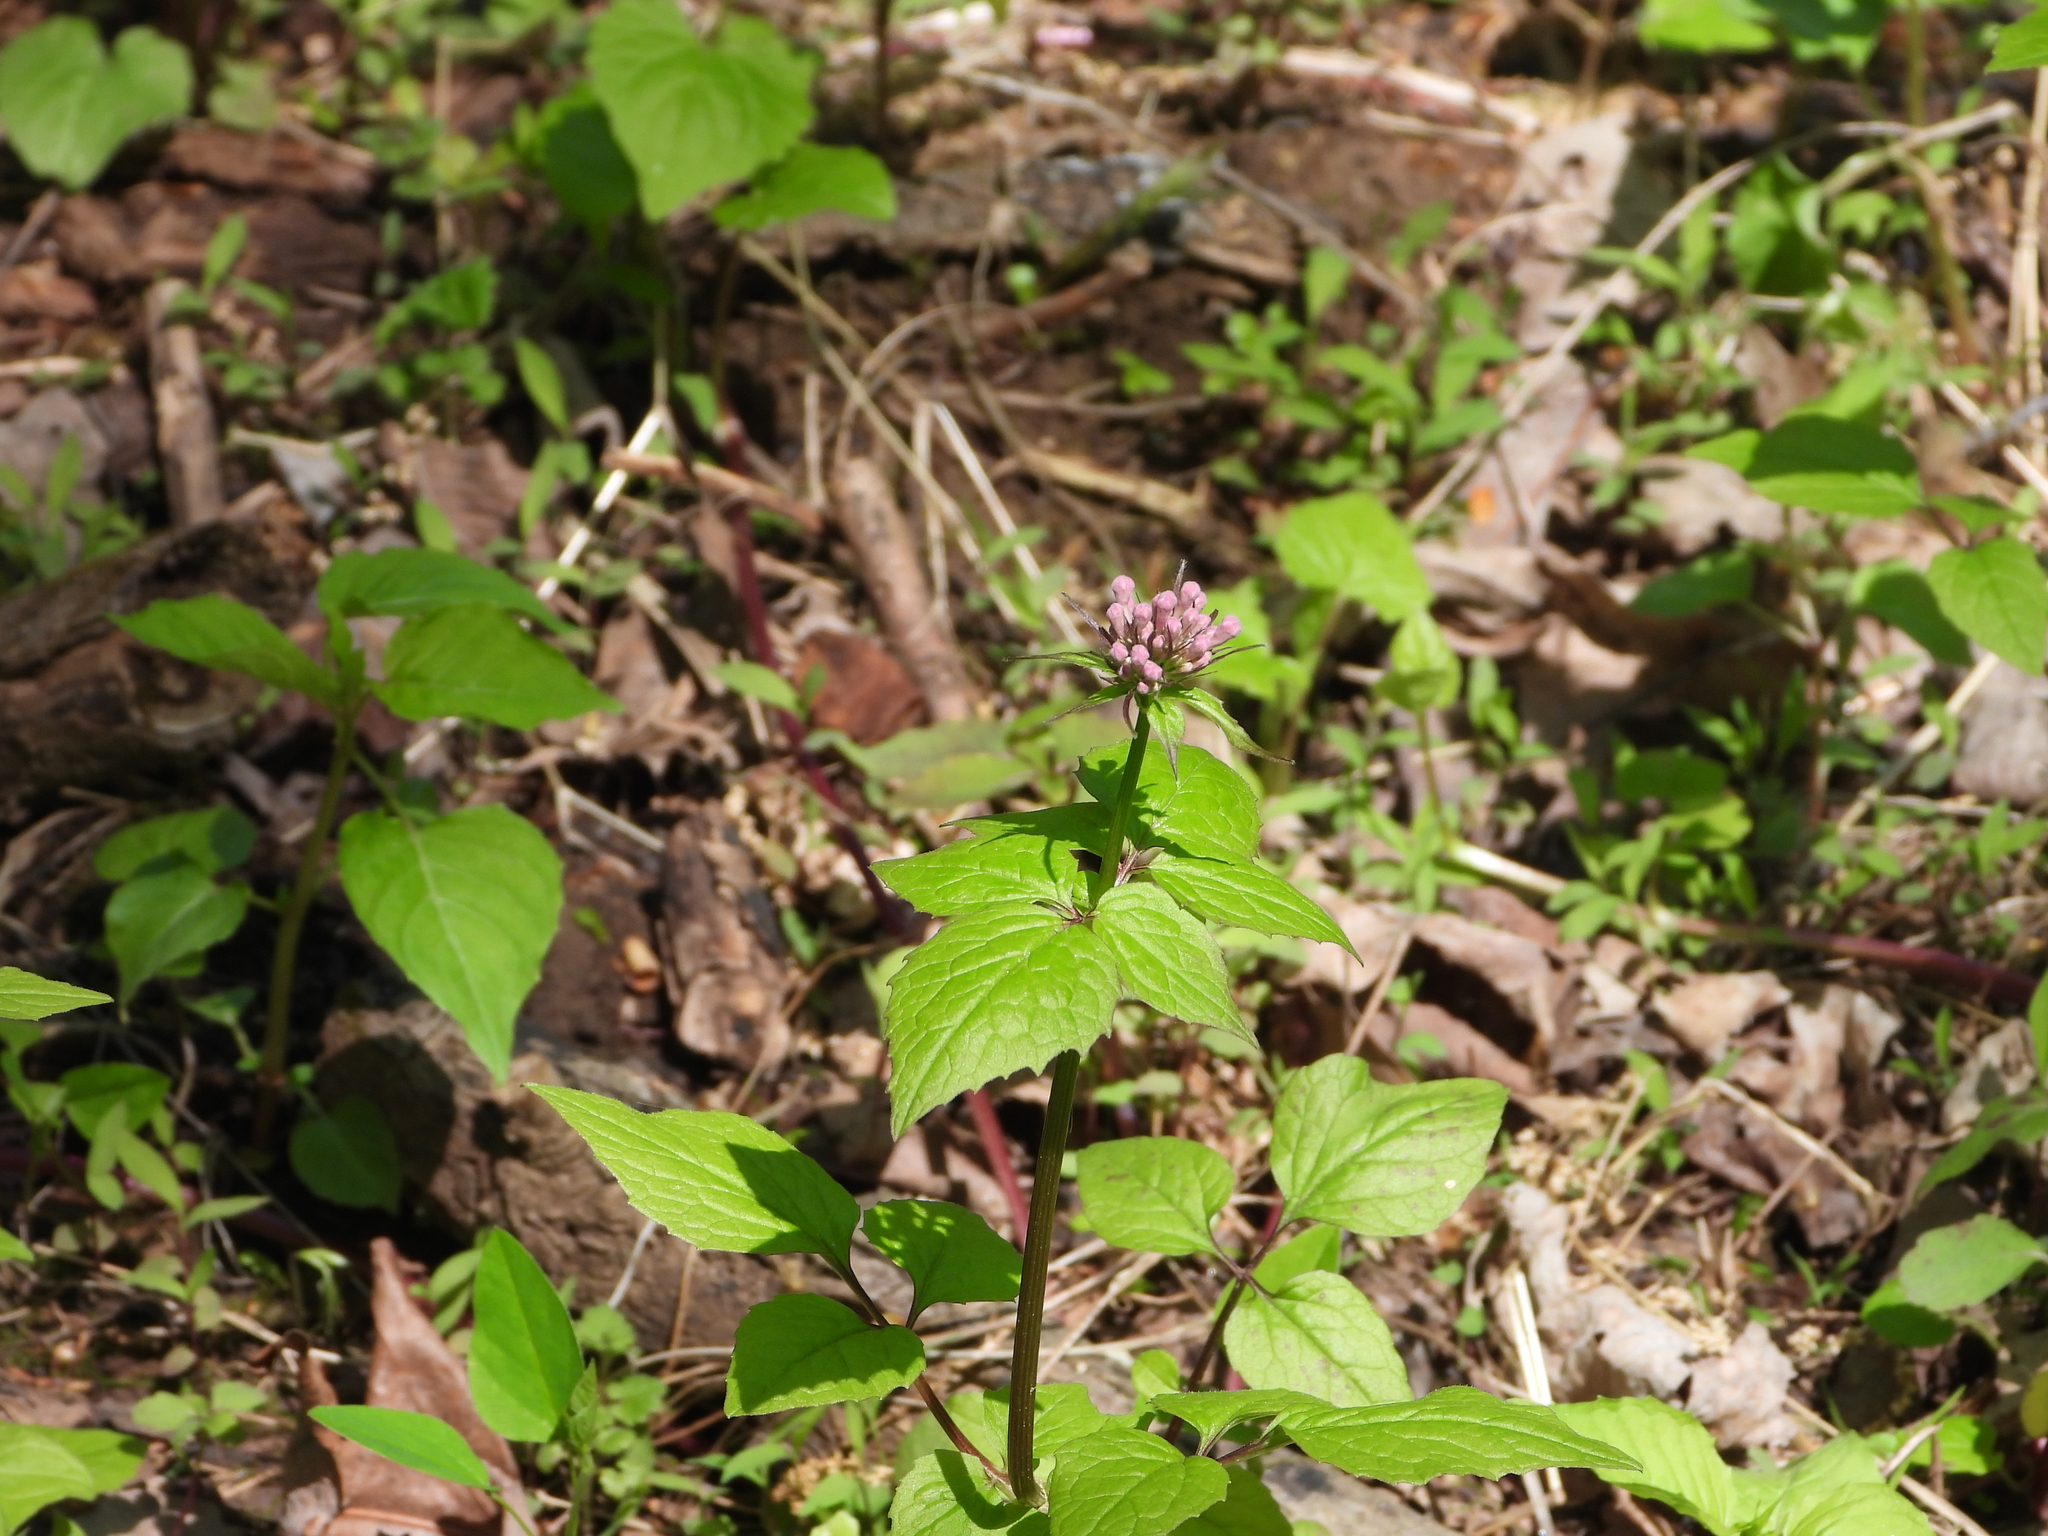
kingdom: Plantae
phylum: Tracheophyta
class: Magnoliopsida
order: Dipsacales
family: Caprifoliaceae
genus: Valeriana
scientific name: Valeriana pauciflora
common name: Long-tube valeriana
